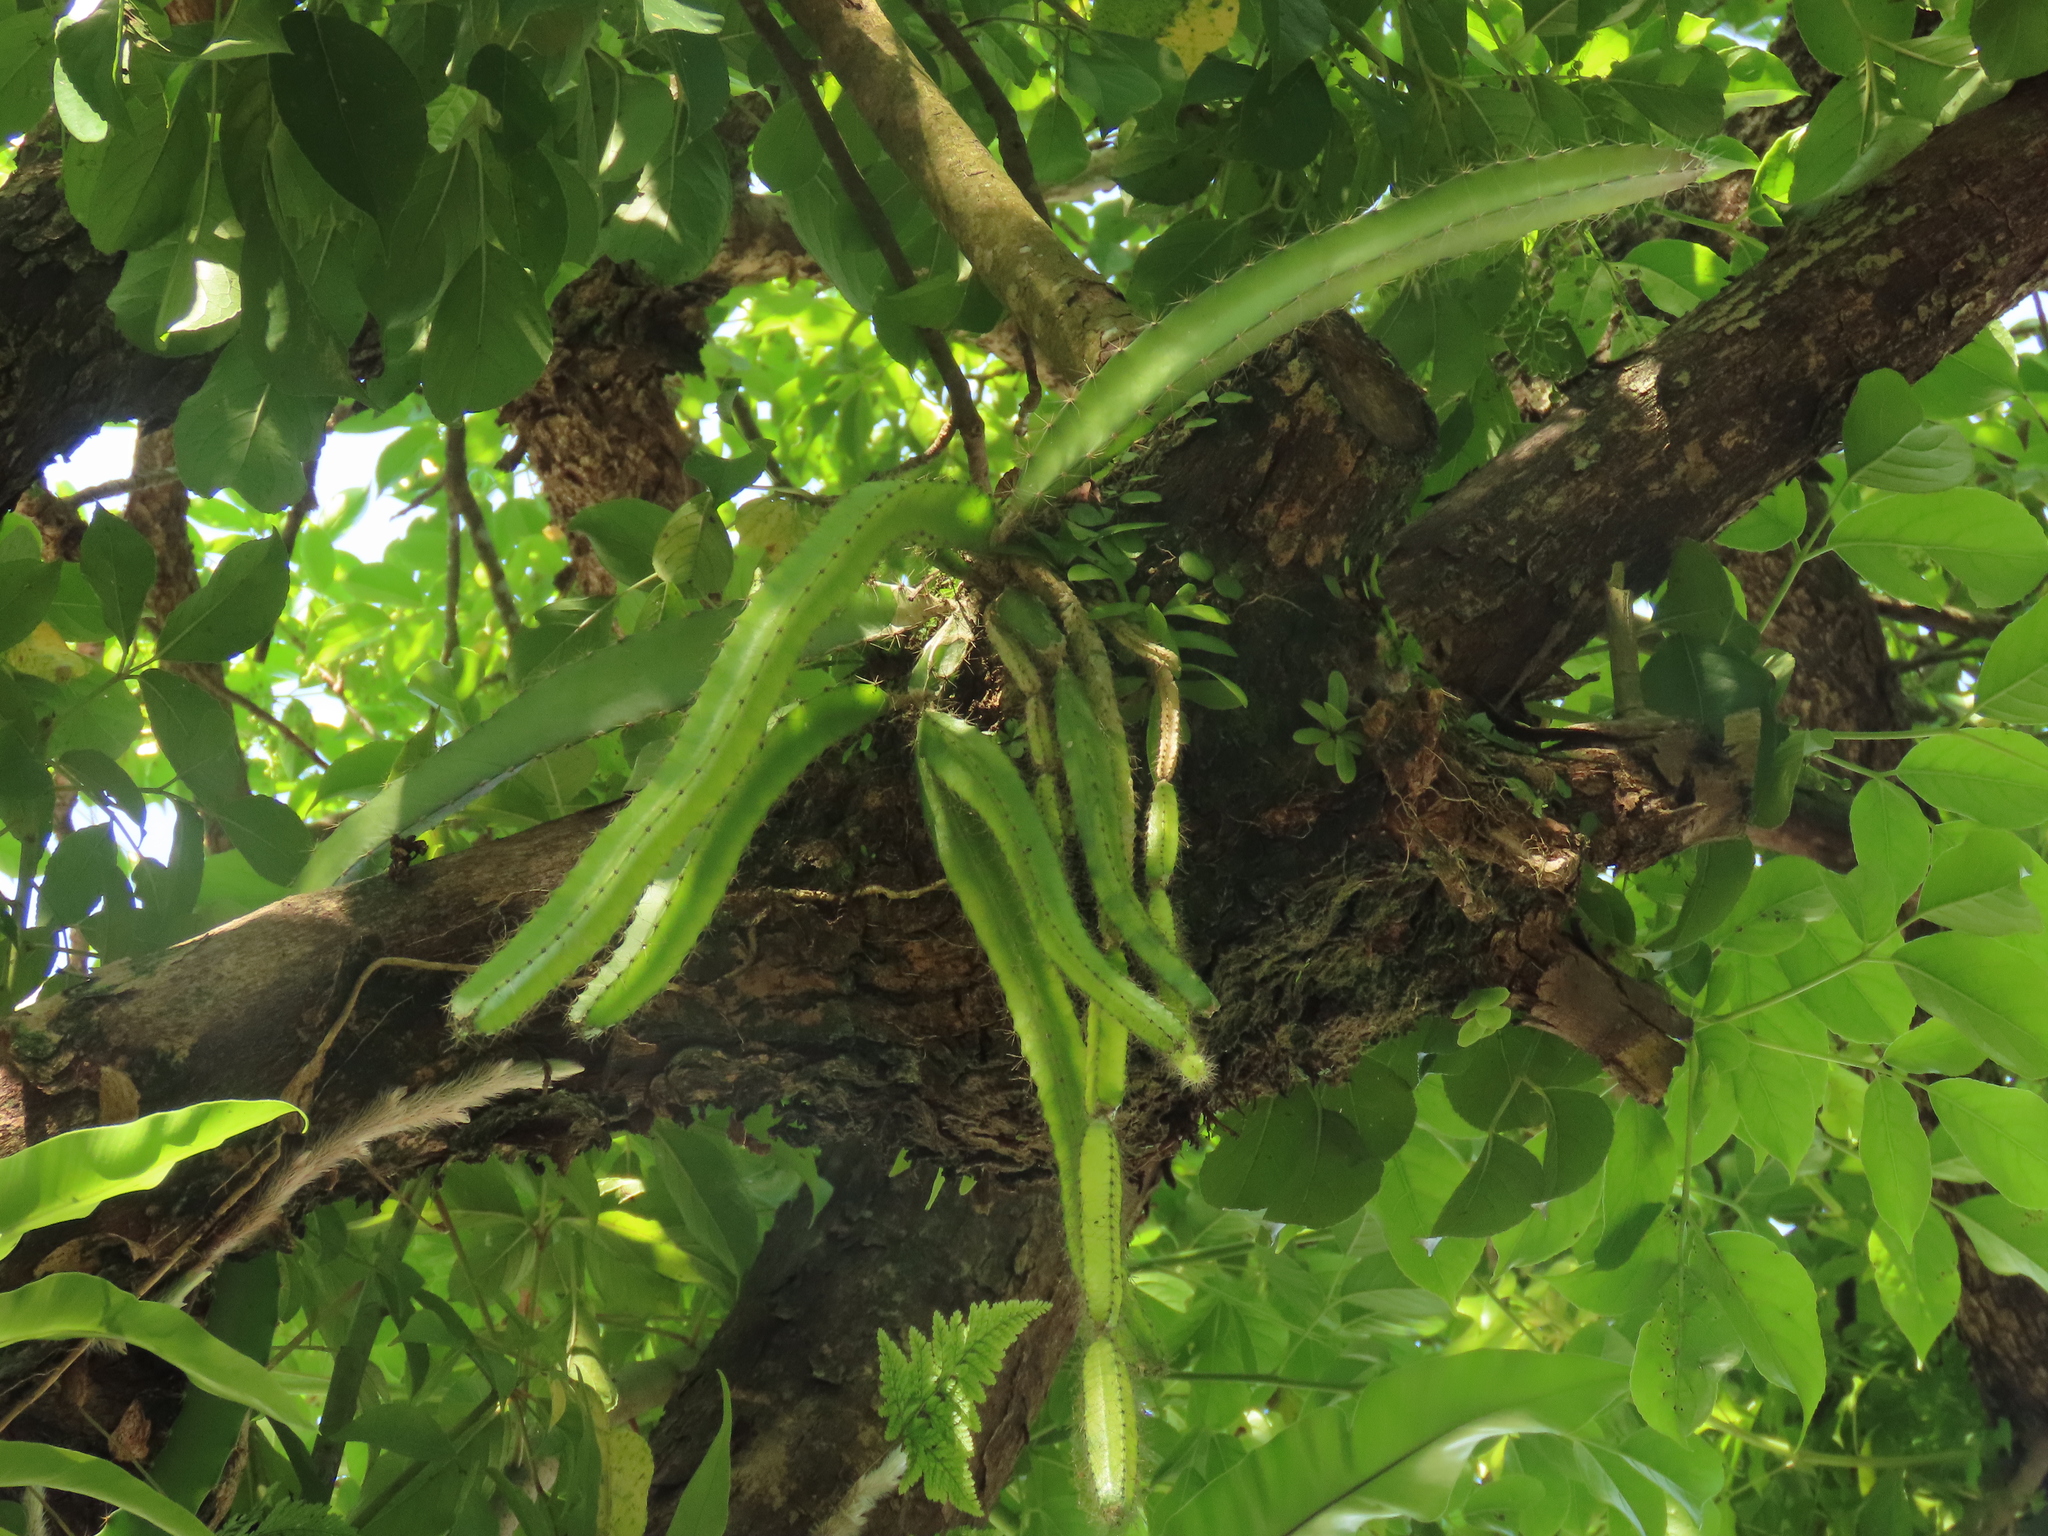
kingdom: Plantae
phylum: Tracheophyta
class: Magnoliopsida
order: Caryophyllales
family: Cactaceae
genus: Selenicereus
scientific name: Selenicereus undatus
